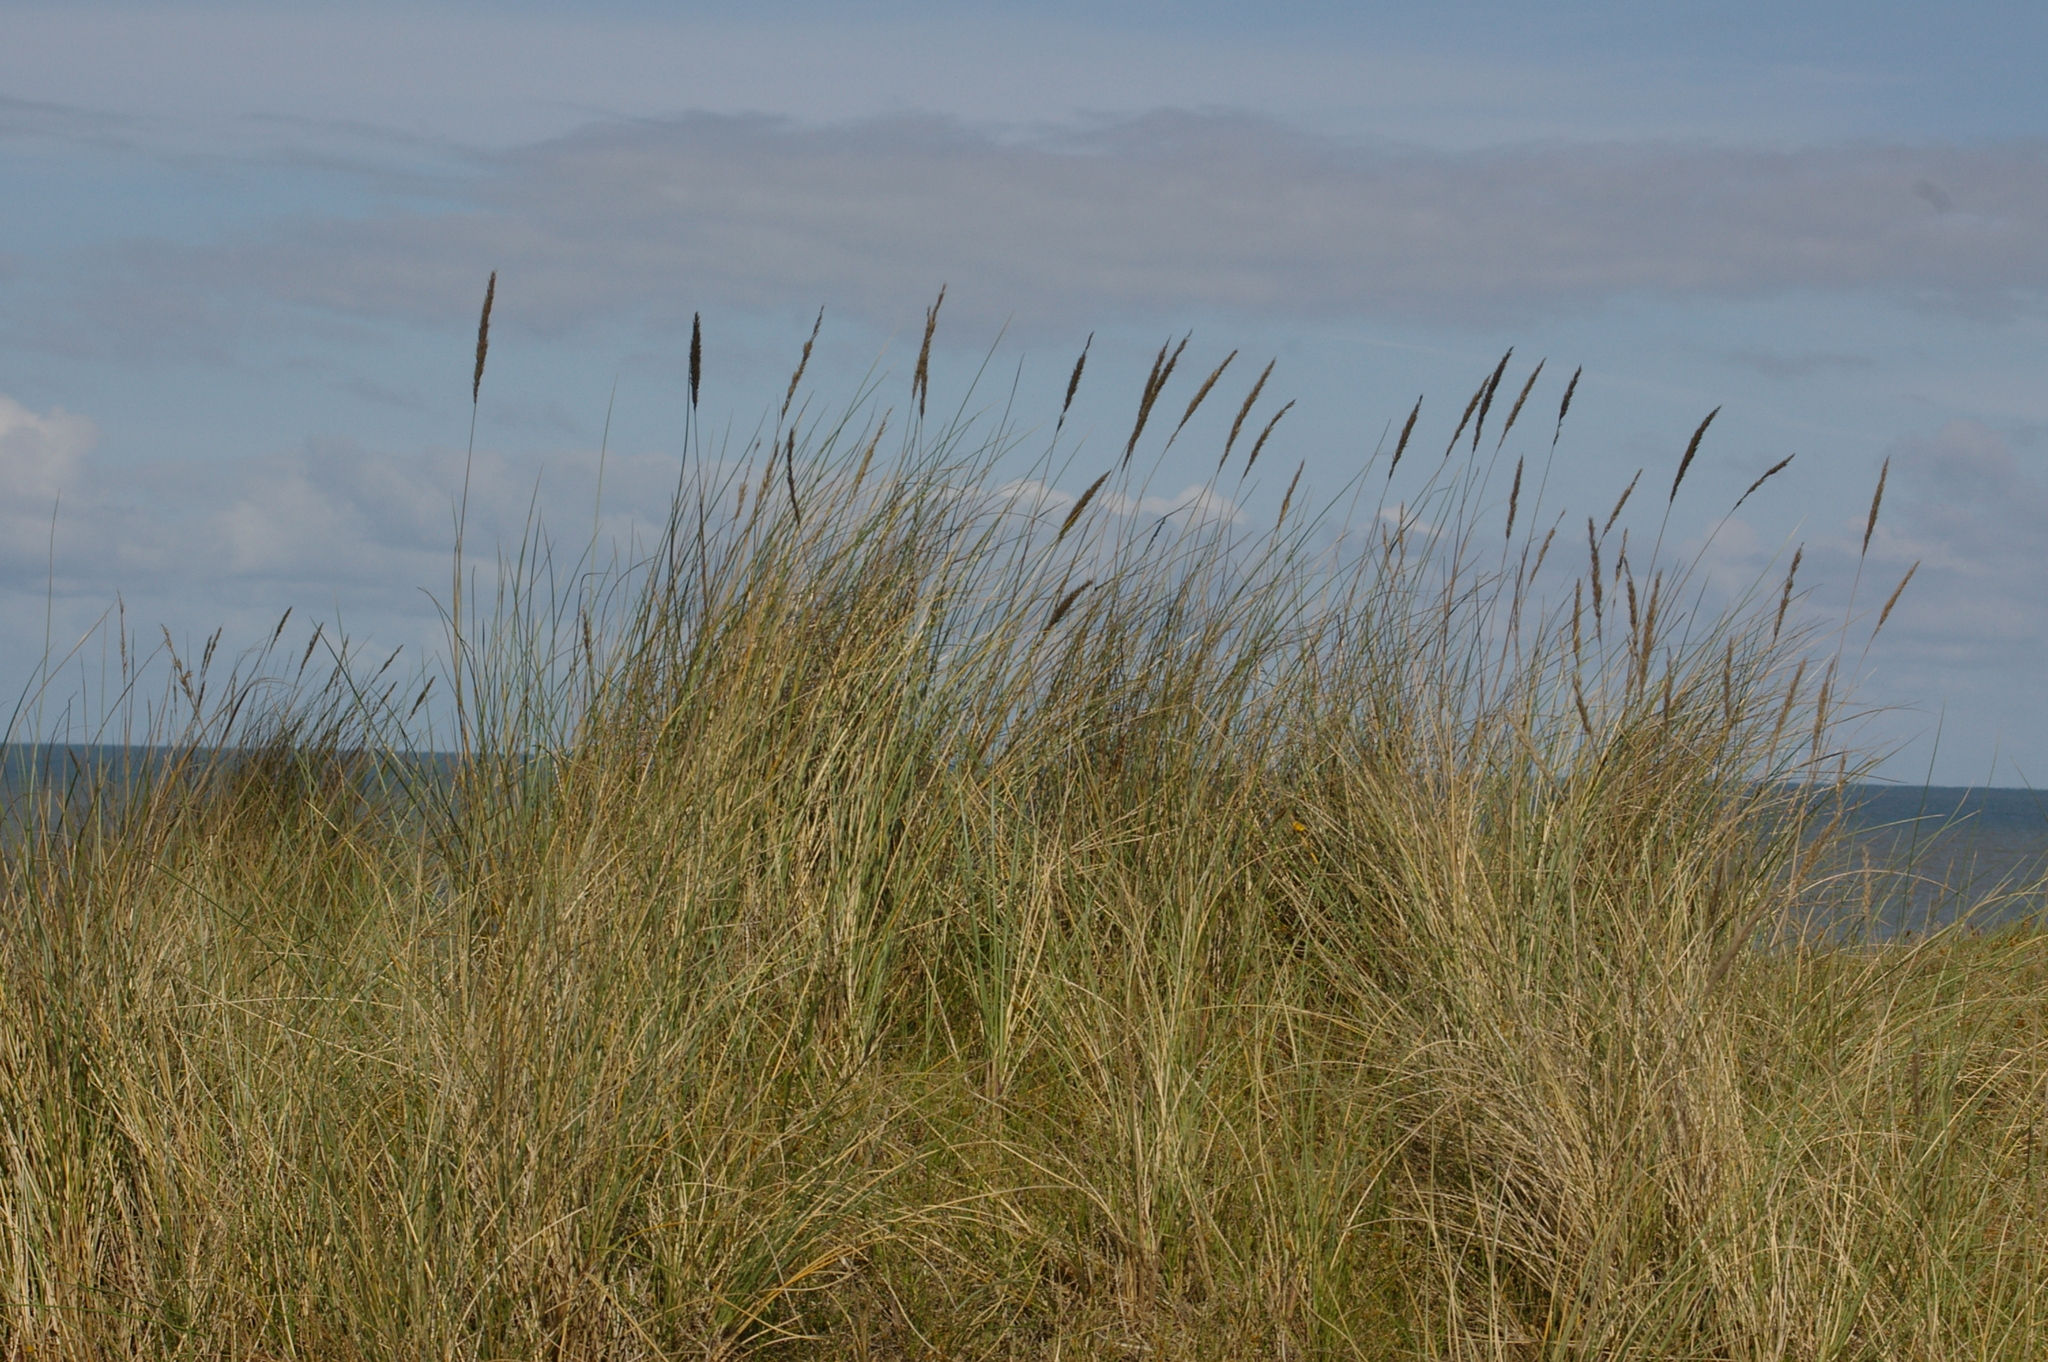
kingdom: Plantae
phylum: Tracheophyta
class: Liliopsida
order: Poales
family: Poaceae
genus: Calamagrostis
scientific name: Calamagrostis arenaria
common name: European beachgrass
